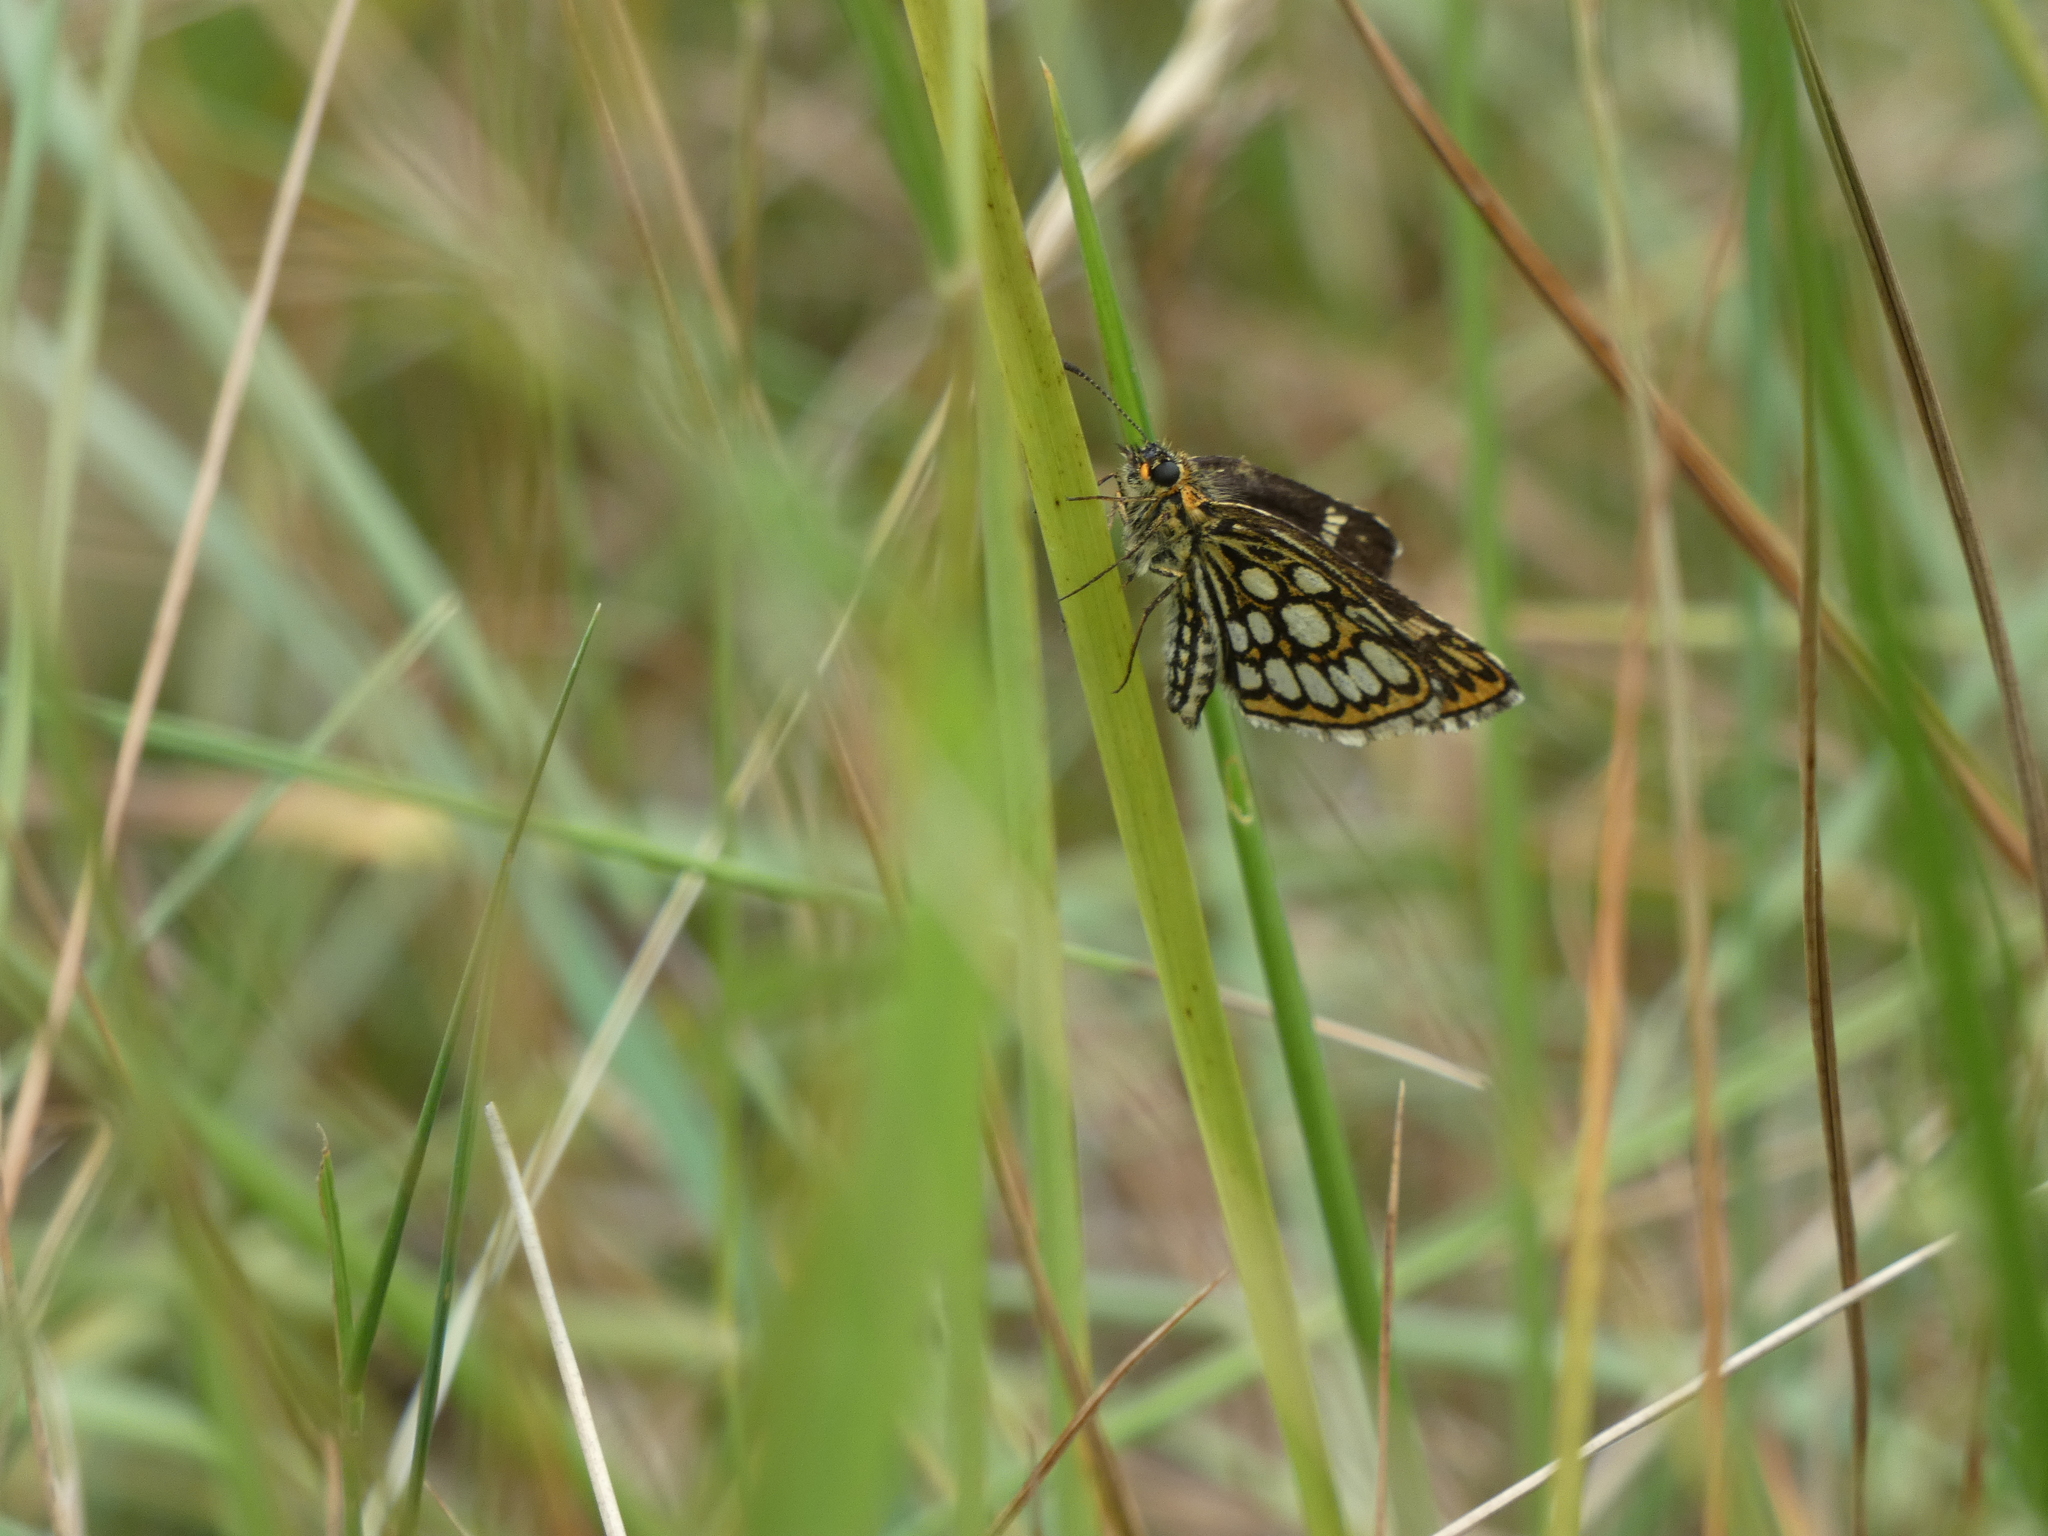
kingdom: Animalia
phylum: Arthropoda
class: Insecta
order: Lepidoptera
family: Hesperiidae
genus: Heteropterus
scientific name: Heteropterus morpheus
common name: Large chequered skipper
